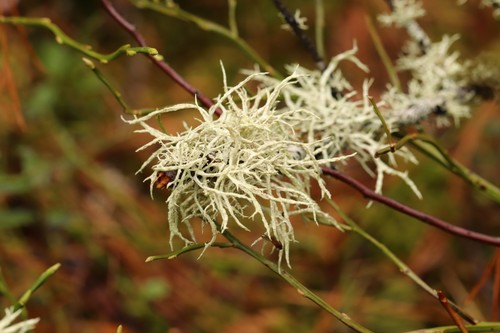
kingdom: Fungi
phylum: Ascomycota
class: Lecanoromycetes
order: Lecanorales
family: Parmeliaceae
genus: Evernia
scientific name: Evernia mesomorpha
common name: Boreal oak moss lichen
